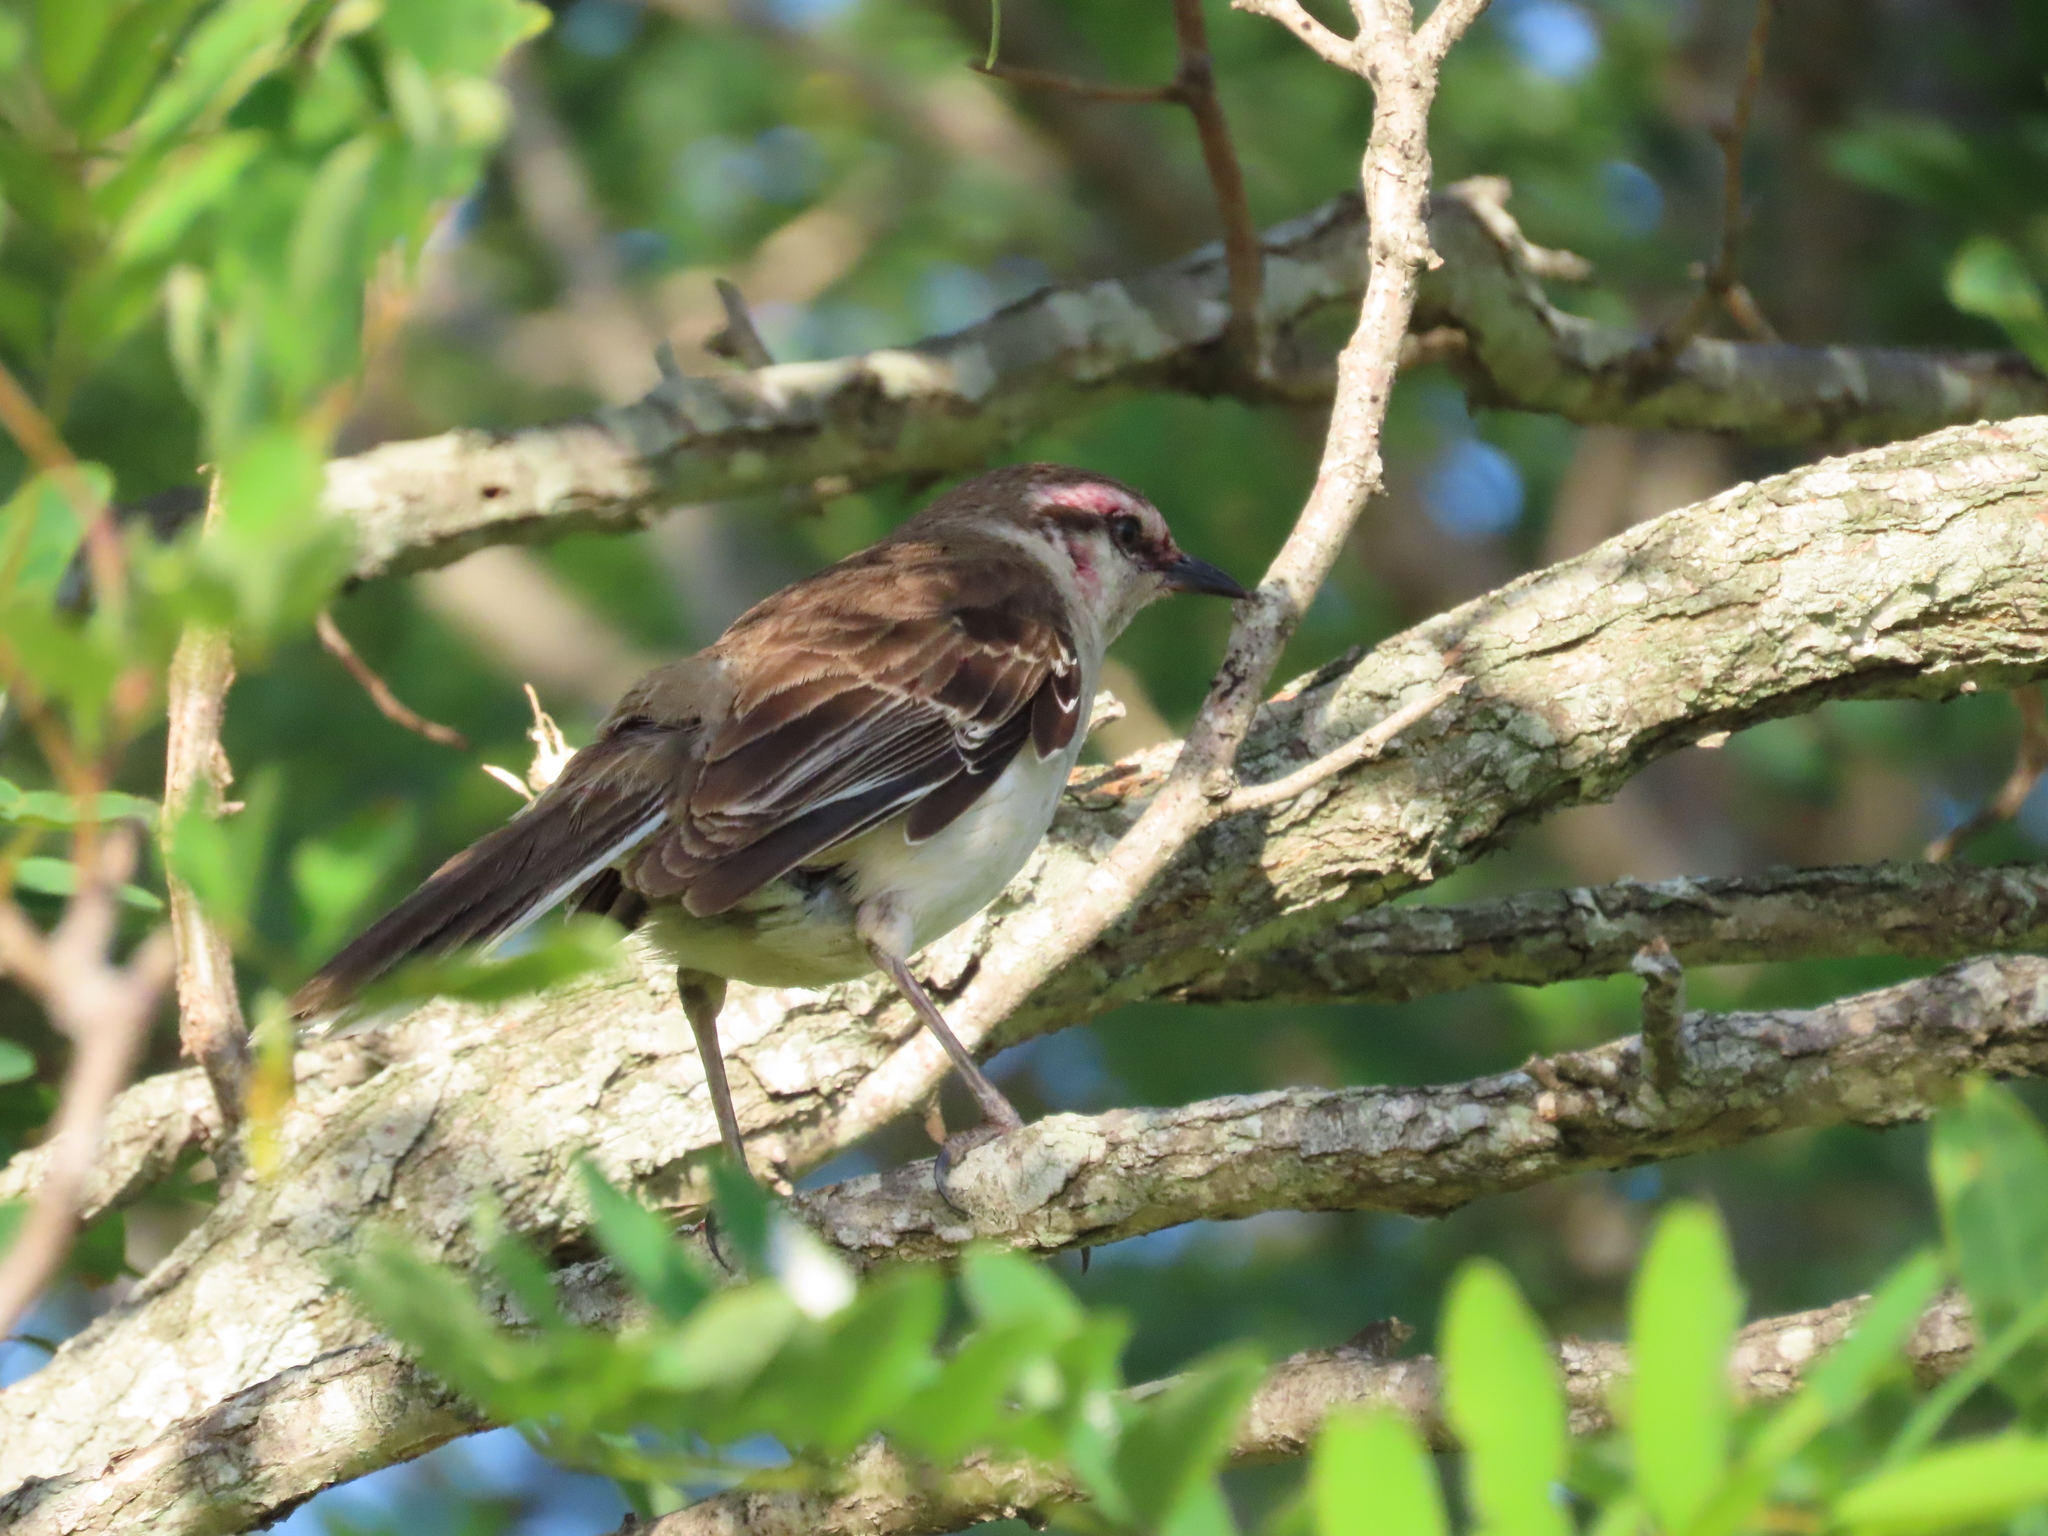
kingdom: Animalia
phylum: Chordata
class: Aves
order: Passeriformes
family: Mimidae
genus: Mimus
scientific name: Mimus saturninus
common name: Chalk-browed mockingbird
